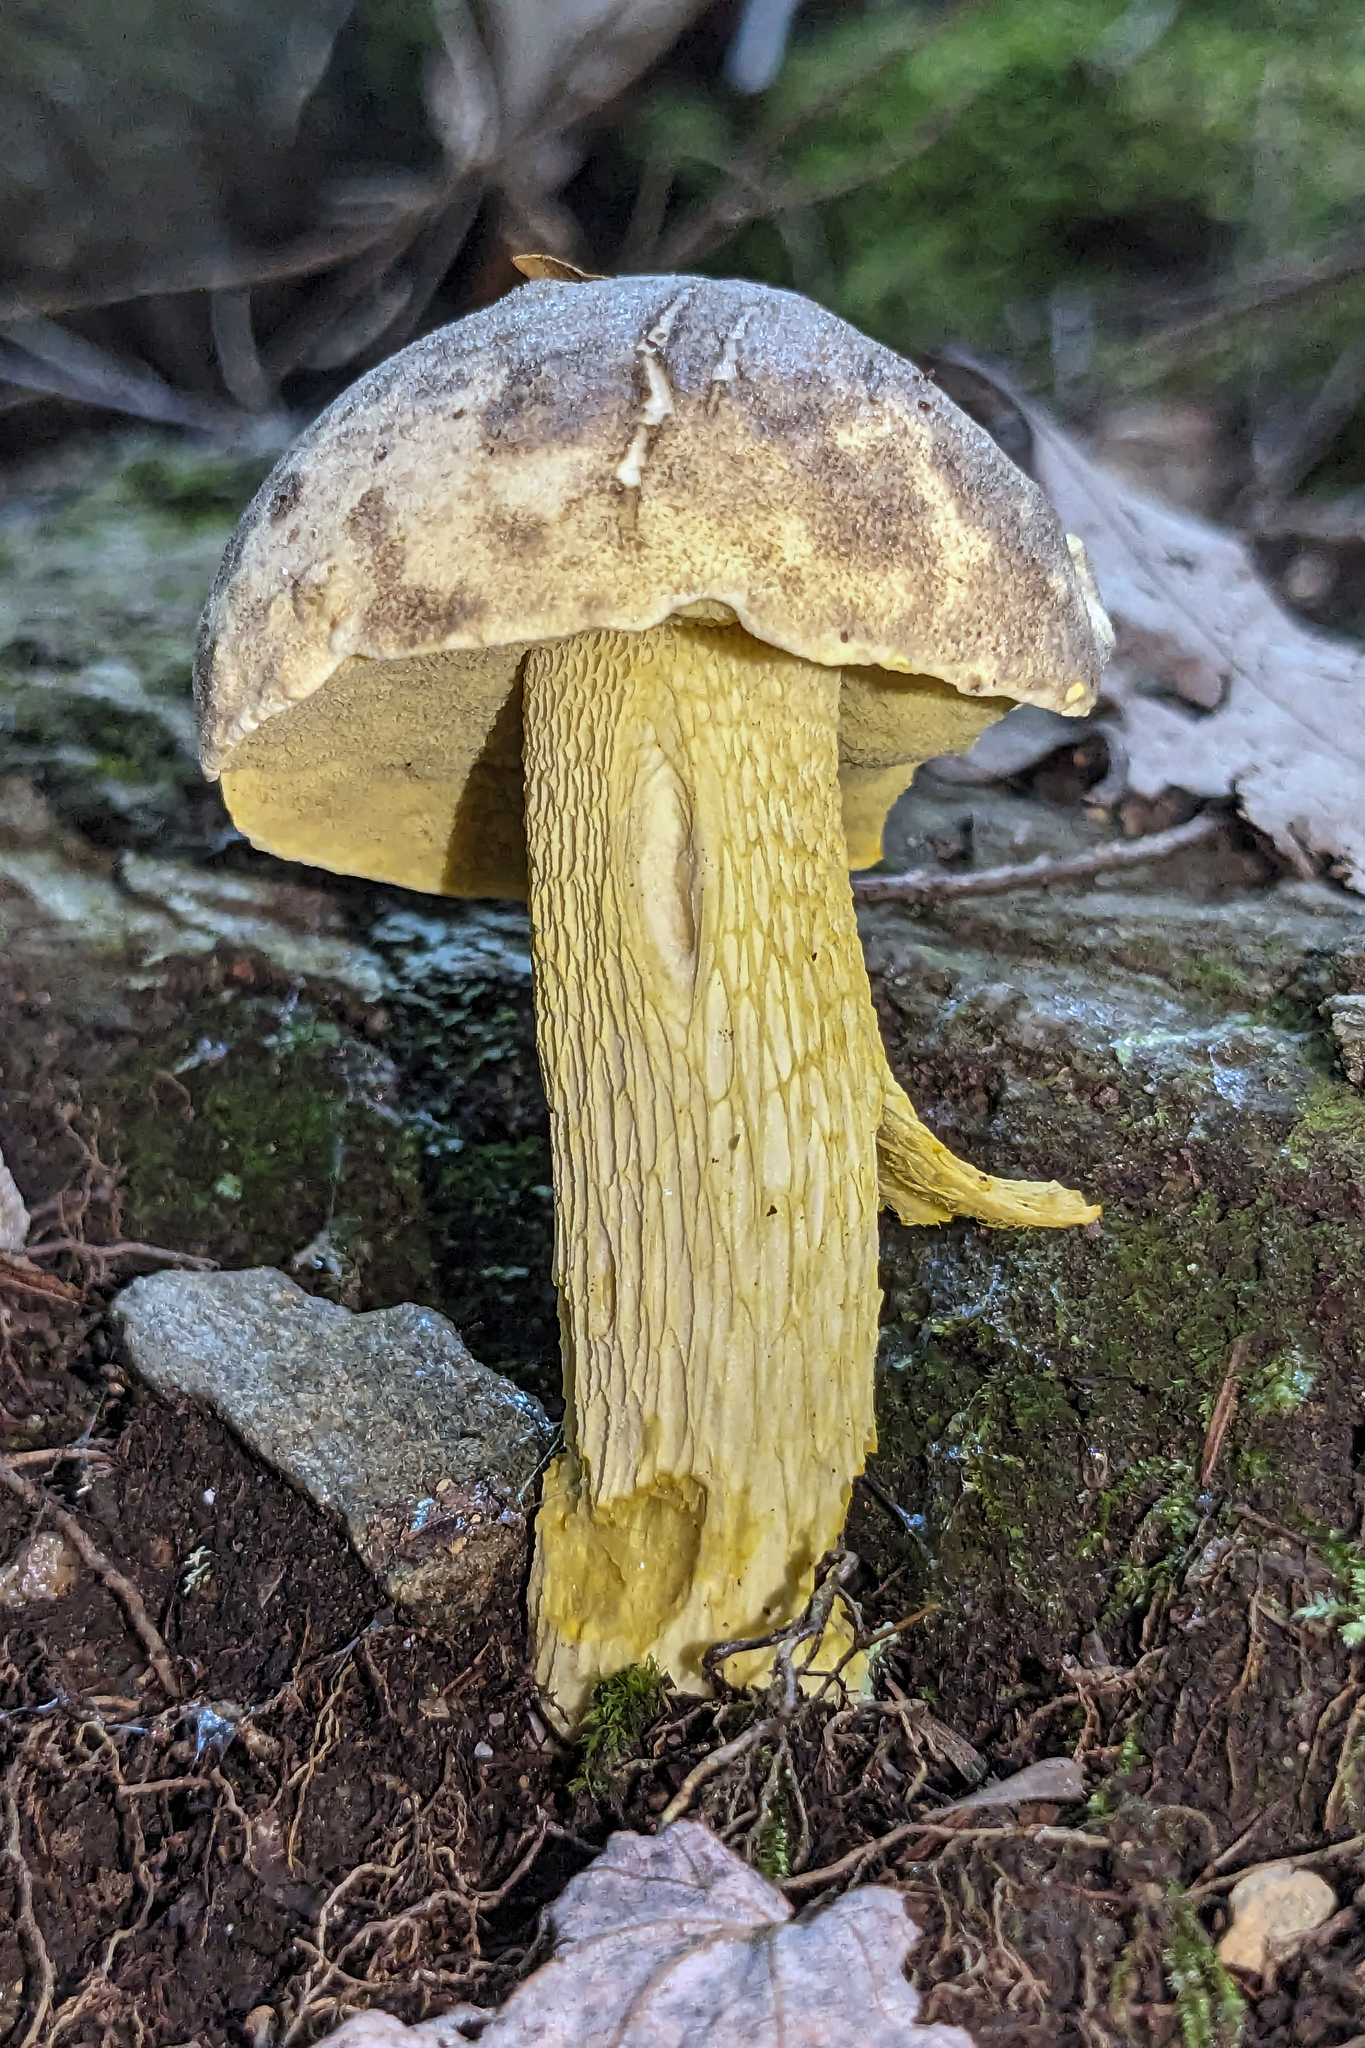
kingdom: Fungi
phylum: Basidiomycota
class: Agaricomycetes
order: Boletales
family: Boletaceae
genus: Retiboletus
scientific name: Retiboletus ornatipes
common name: Ornate-stalked bolete
